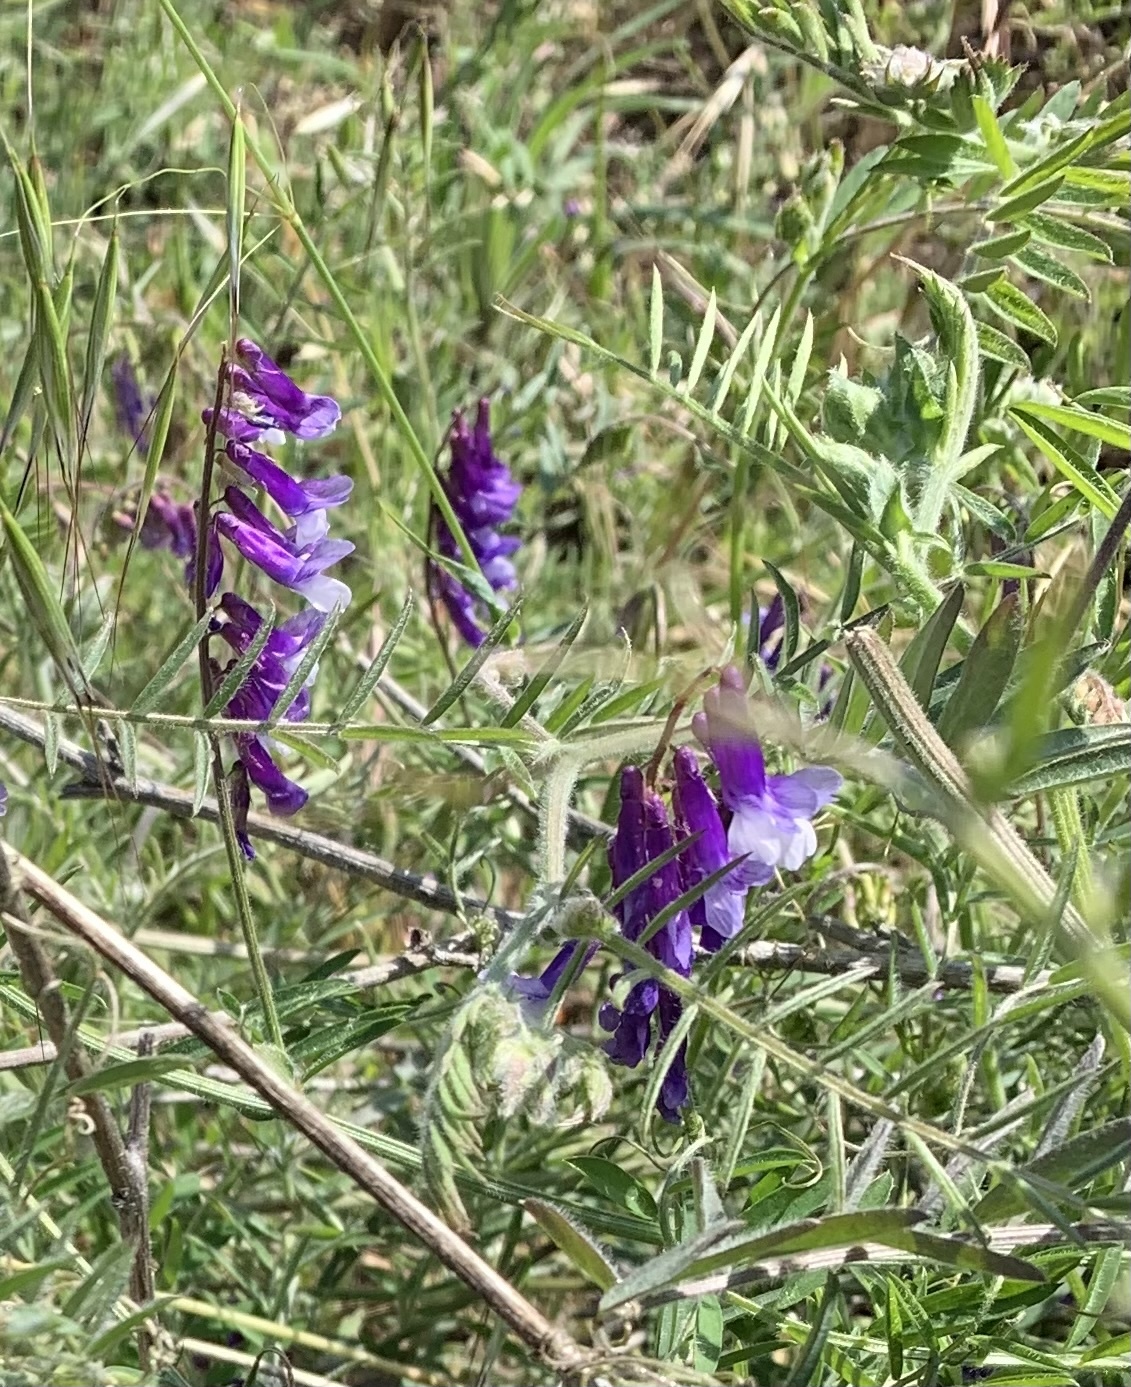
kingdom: Plantae
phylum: Tracheophyta
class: Magnoliopsida
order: Fabales
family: Fabaceae
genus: Vicia
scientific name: Vicia villosa
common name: Fodder vetch
